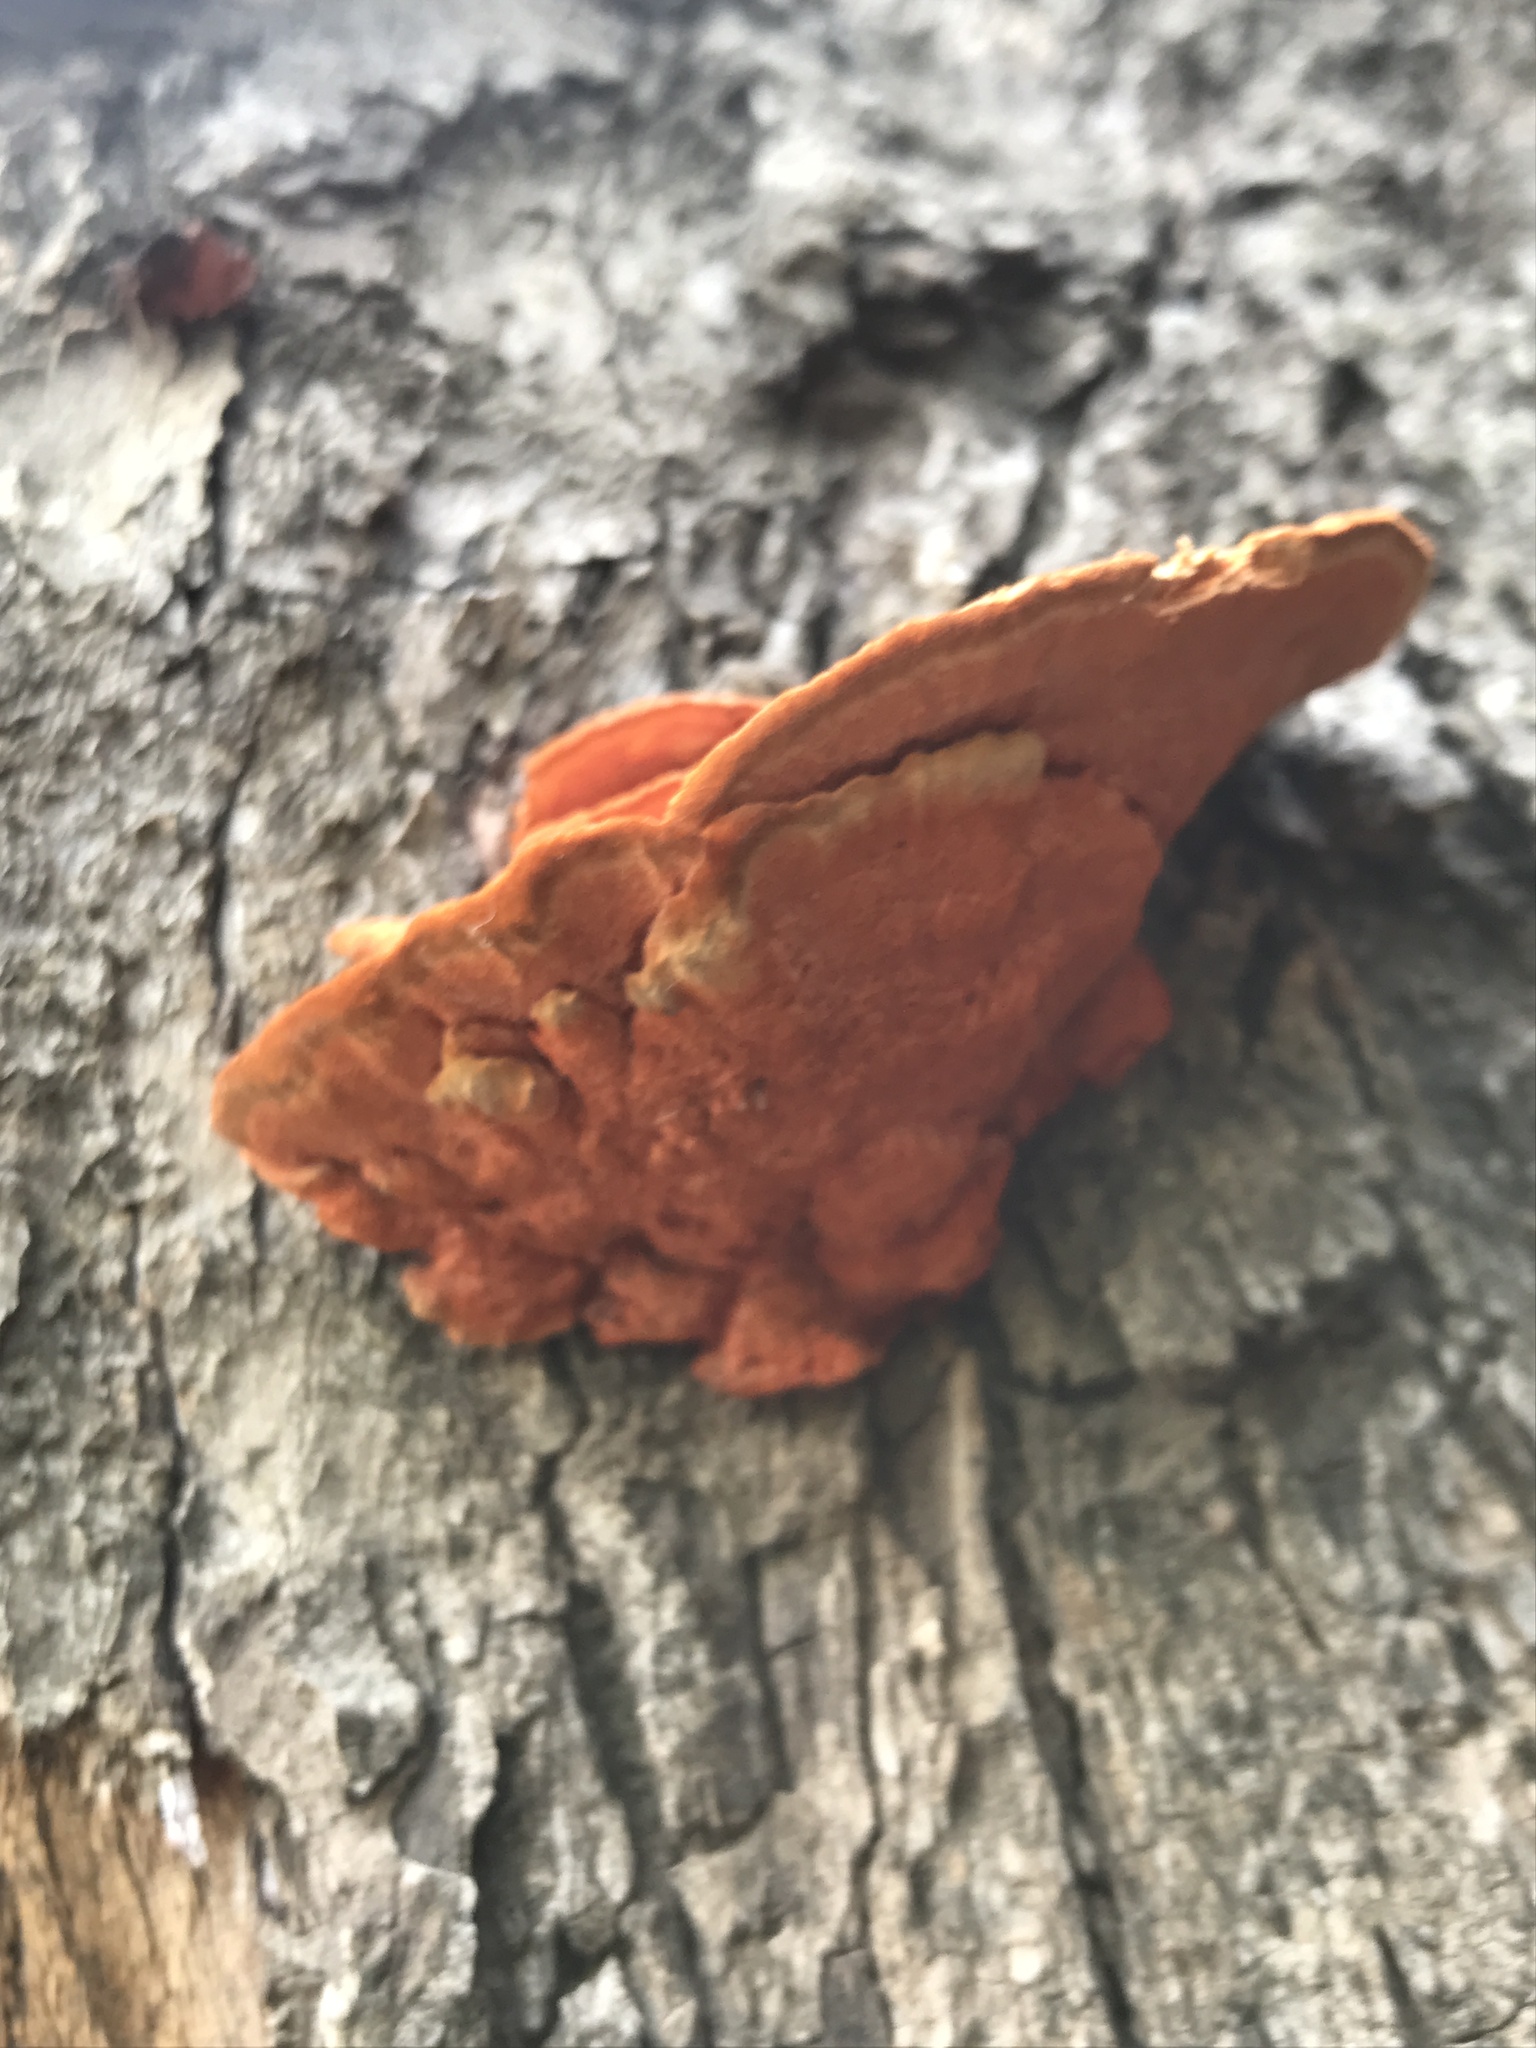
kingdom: Fungi
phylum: Basidiomycota
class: Agaricomycetes
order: Polyporales
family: Polyporaceae
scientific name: Polyporaceae
